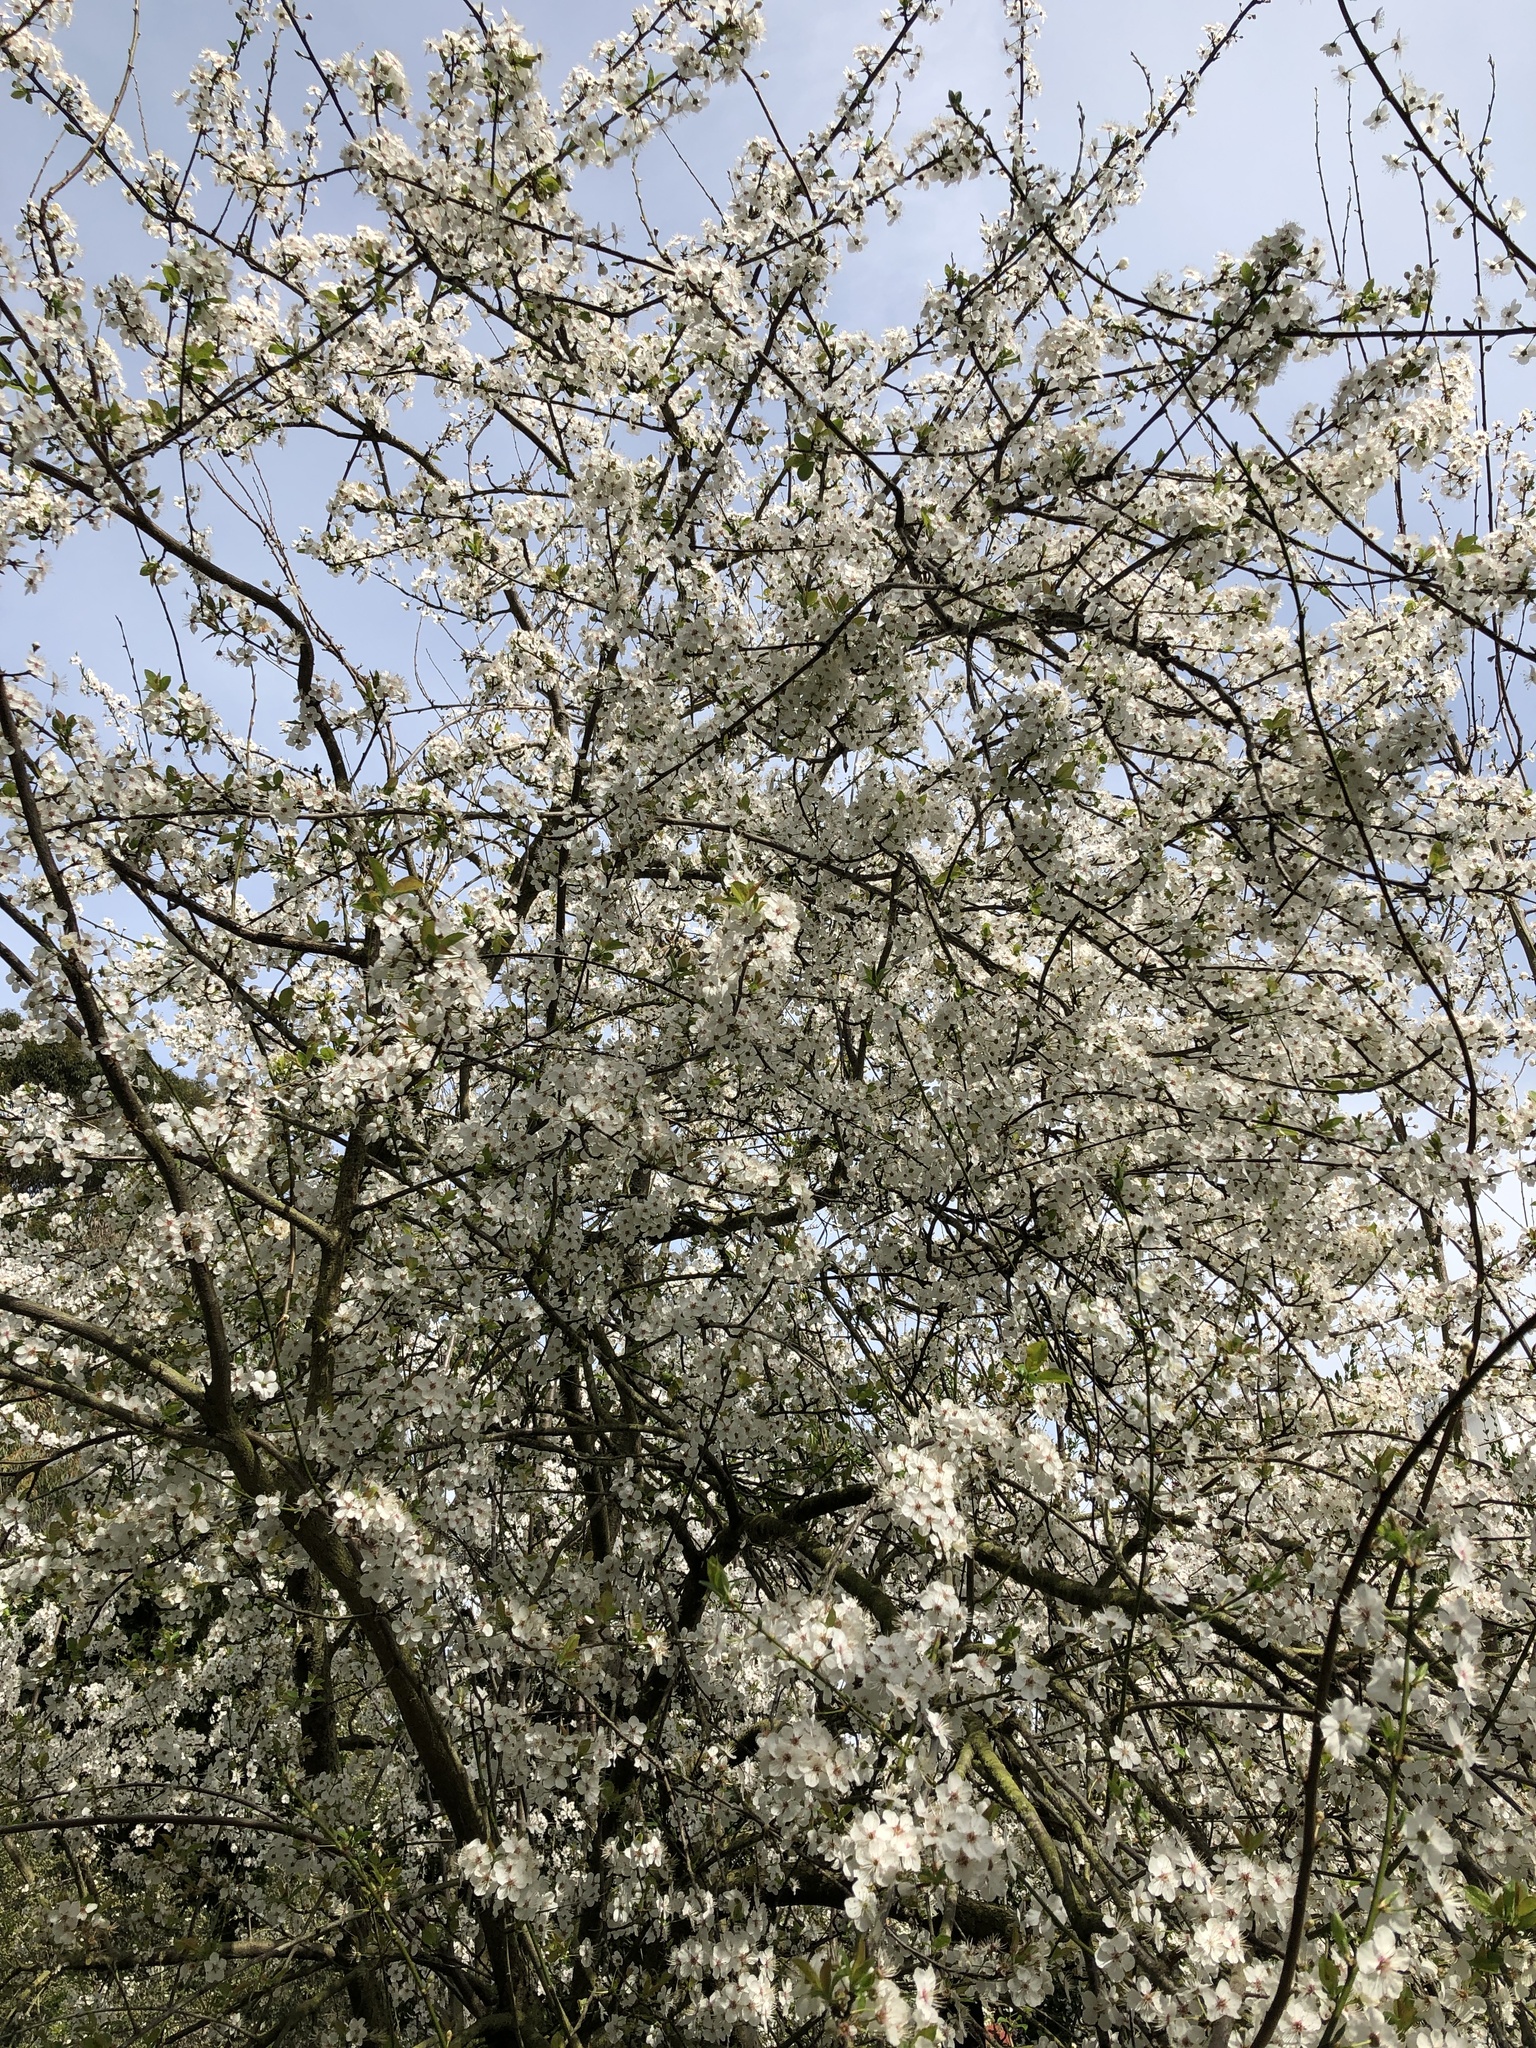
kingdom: Plantae
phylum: Tracheophyta
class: Magnoliopsida
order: Rosales
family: Rosaceae
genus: Prunus
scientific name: Prunus cerasifera
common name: Cherry plum
